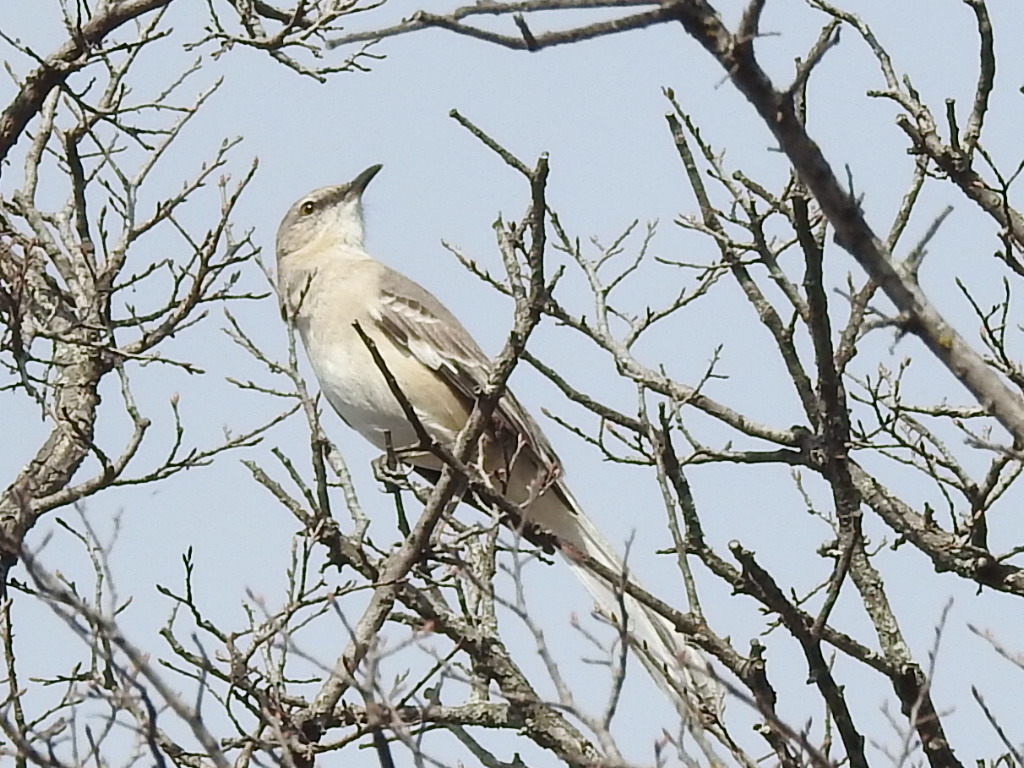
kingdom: Animalia
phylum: Chordata
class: Aves
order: Passeriformes
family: Mimidae
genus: Mimus
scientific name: Mimus polyglottos
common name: Northern mockingbird
